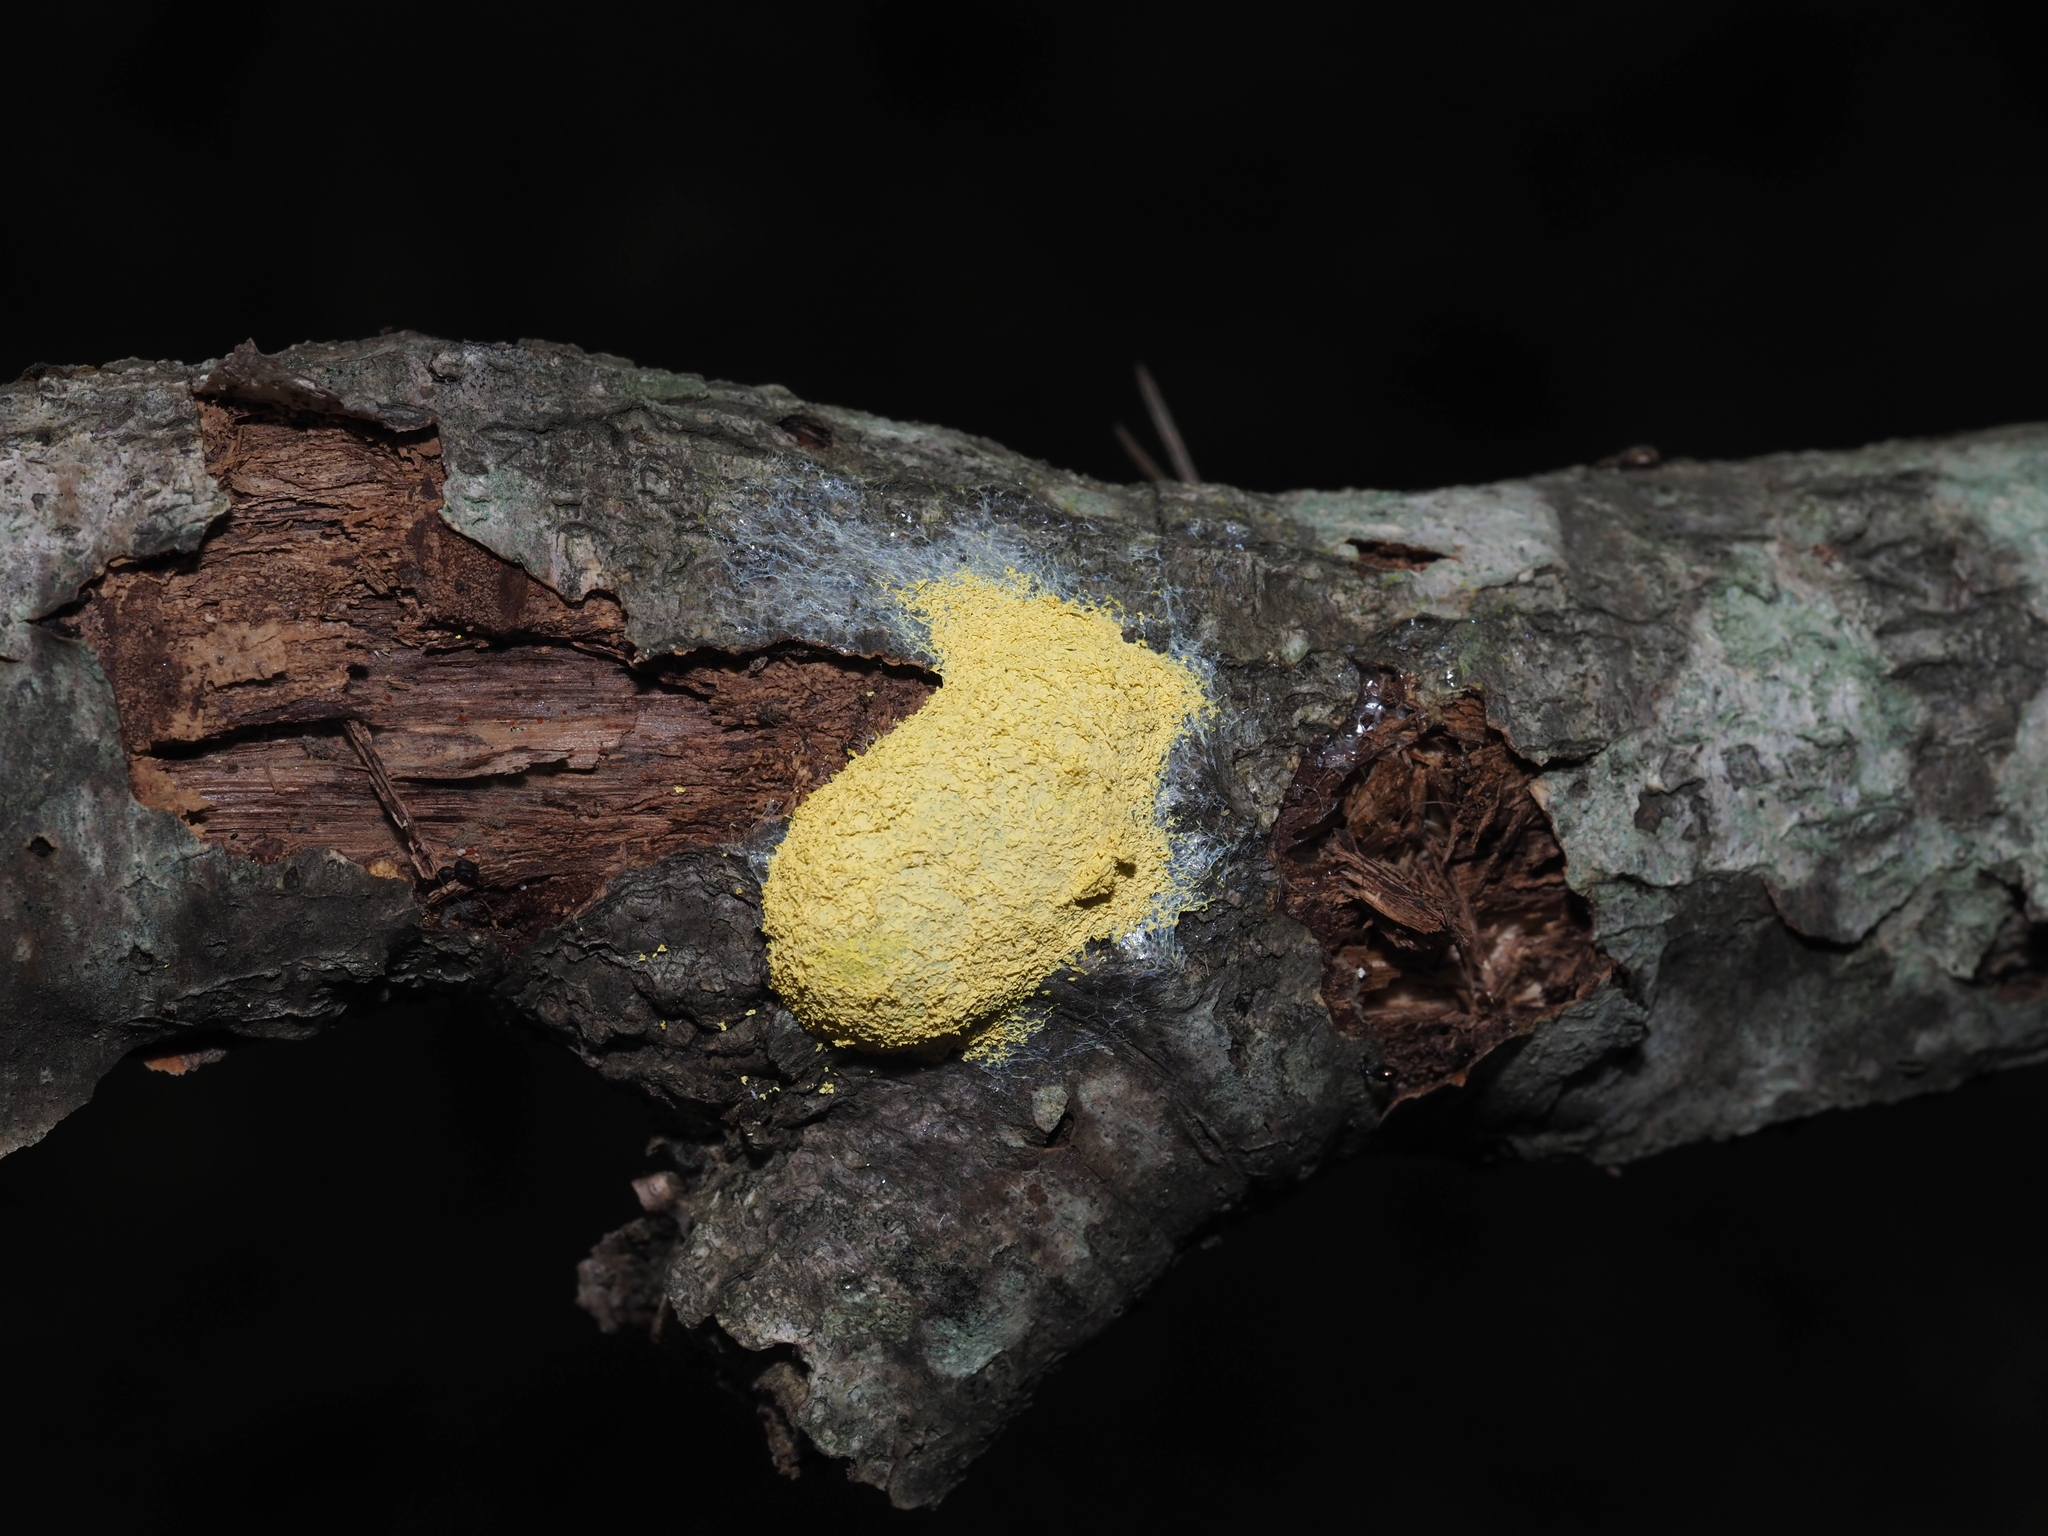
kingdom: Protozoa
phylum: Mycetozoa
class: Myxomycetes
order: Physarales
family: Physaraceae
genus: Fuligo
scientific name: Fuligo septica
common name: Dog vomit slime mold
